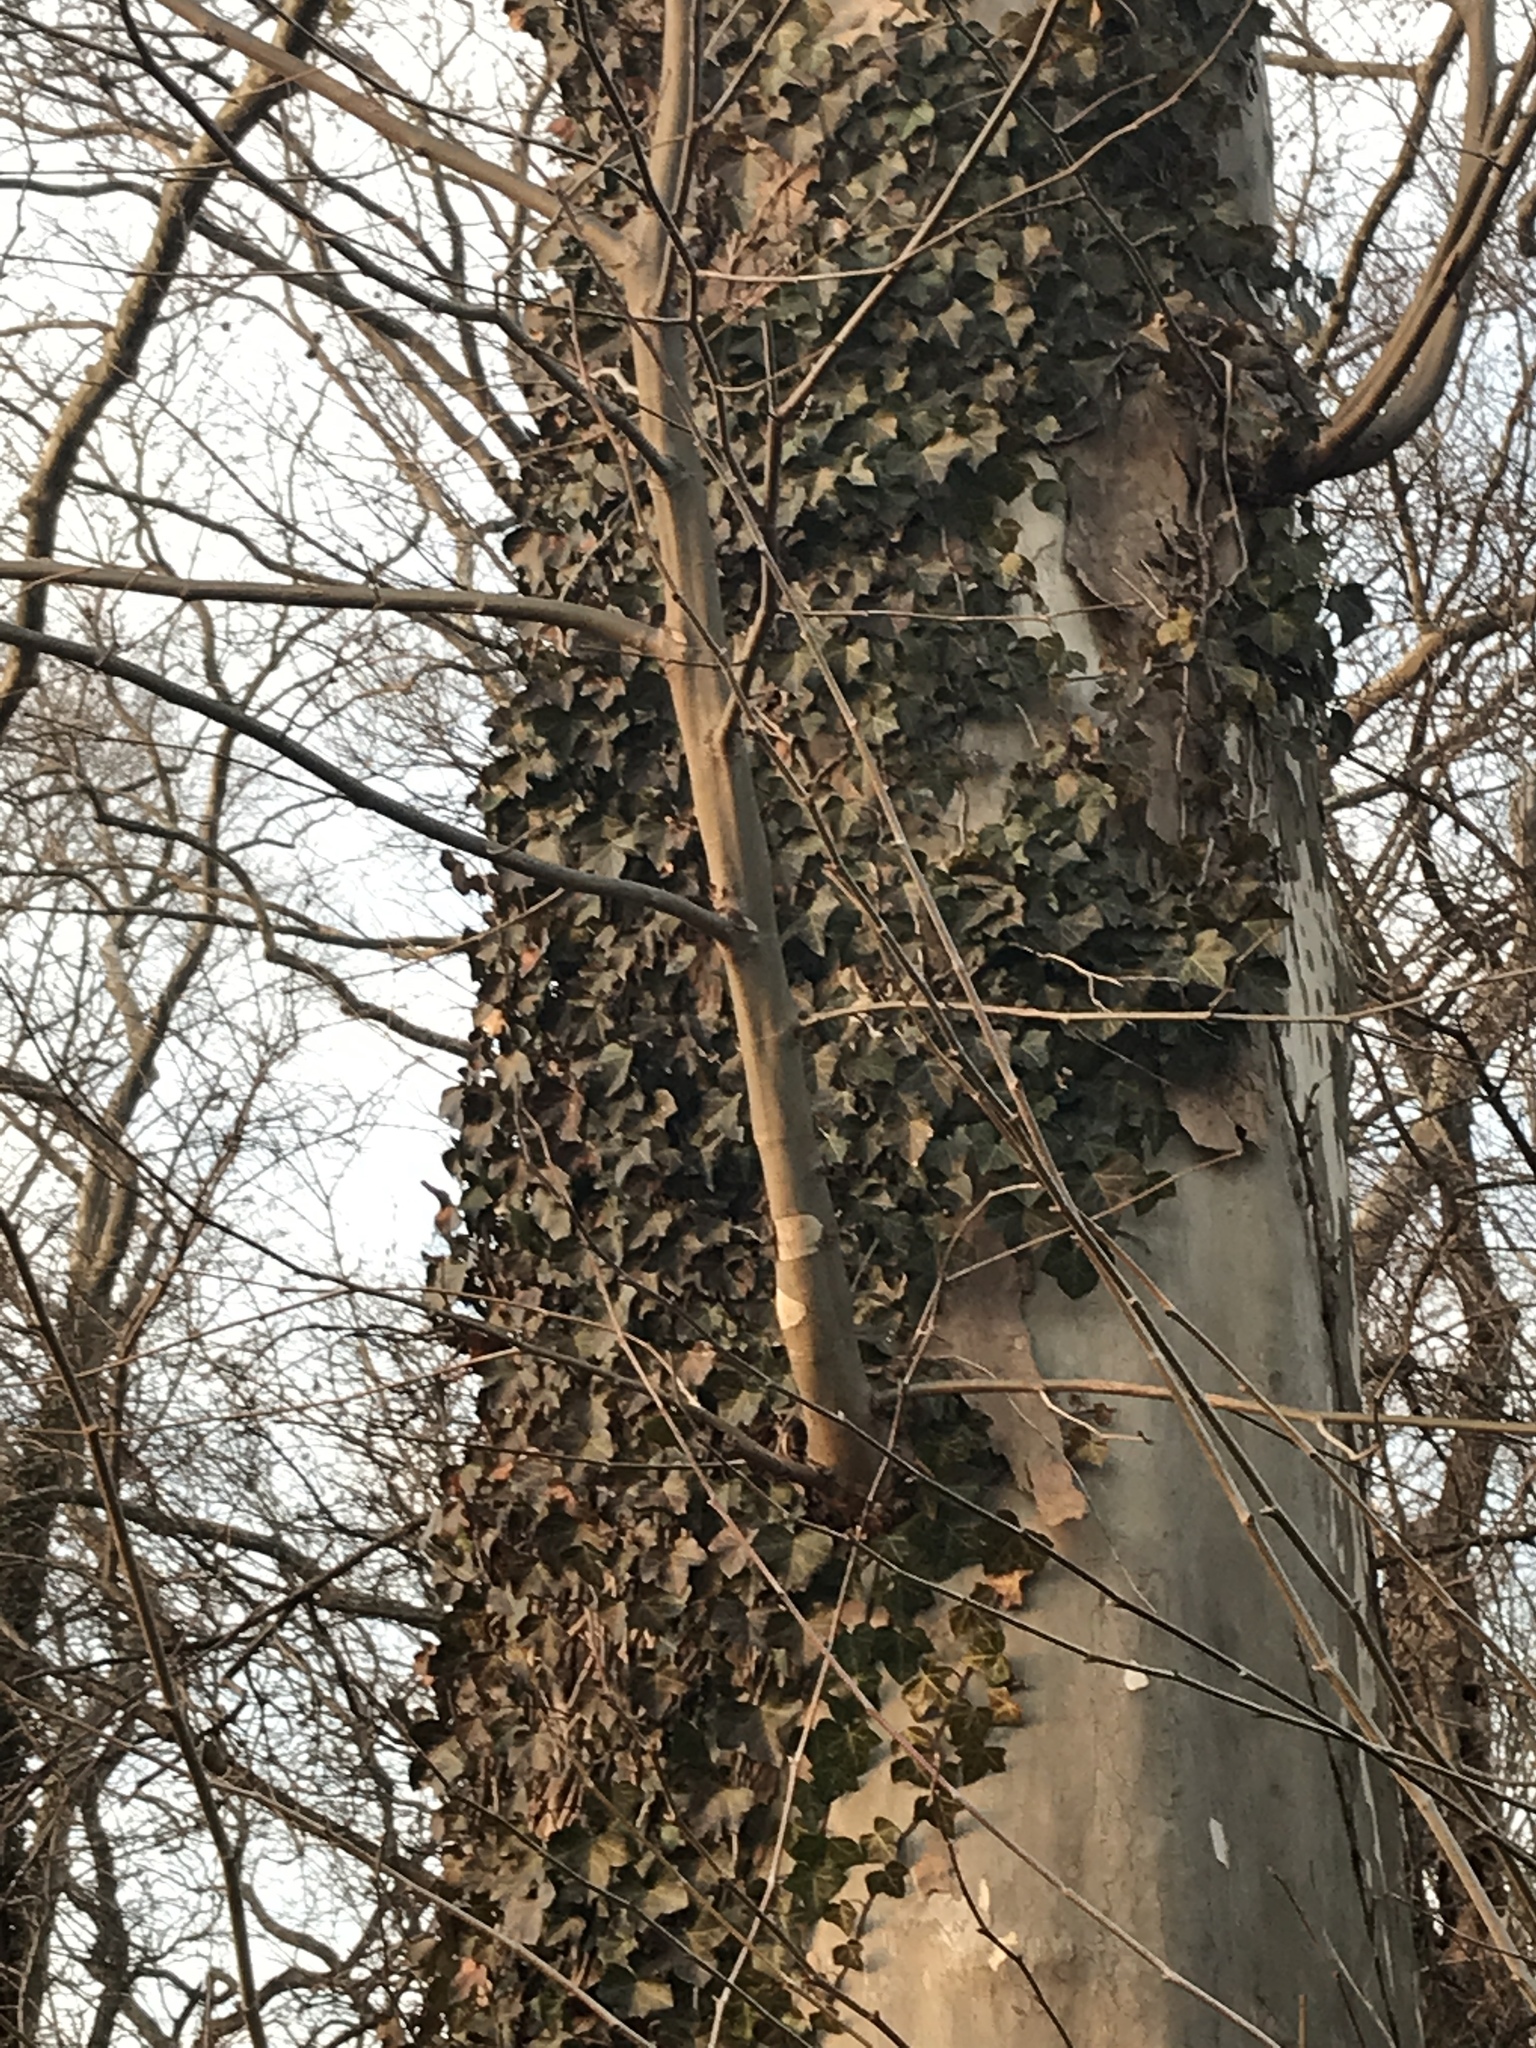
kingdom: Plantae
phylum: Tracheophyta
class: Magnoliopsida
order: Apiales
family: Araliaceae
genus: Hedera
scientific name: Hedera helix
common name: Ivy
